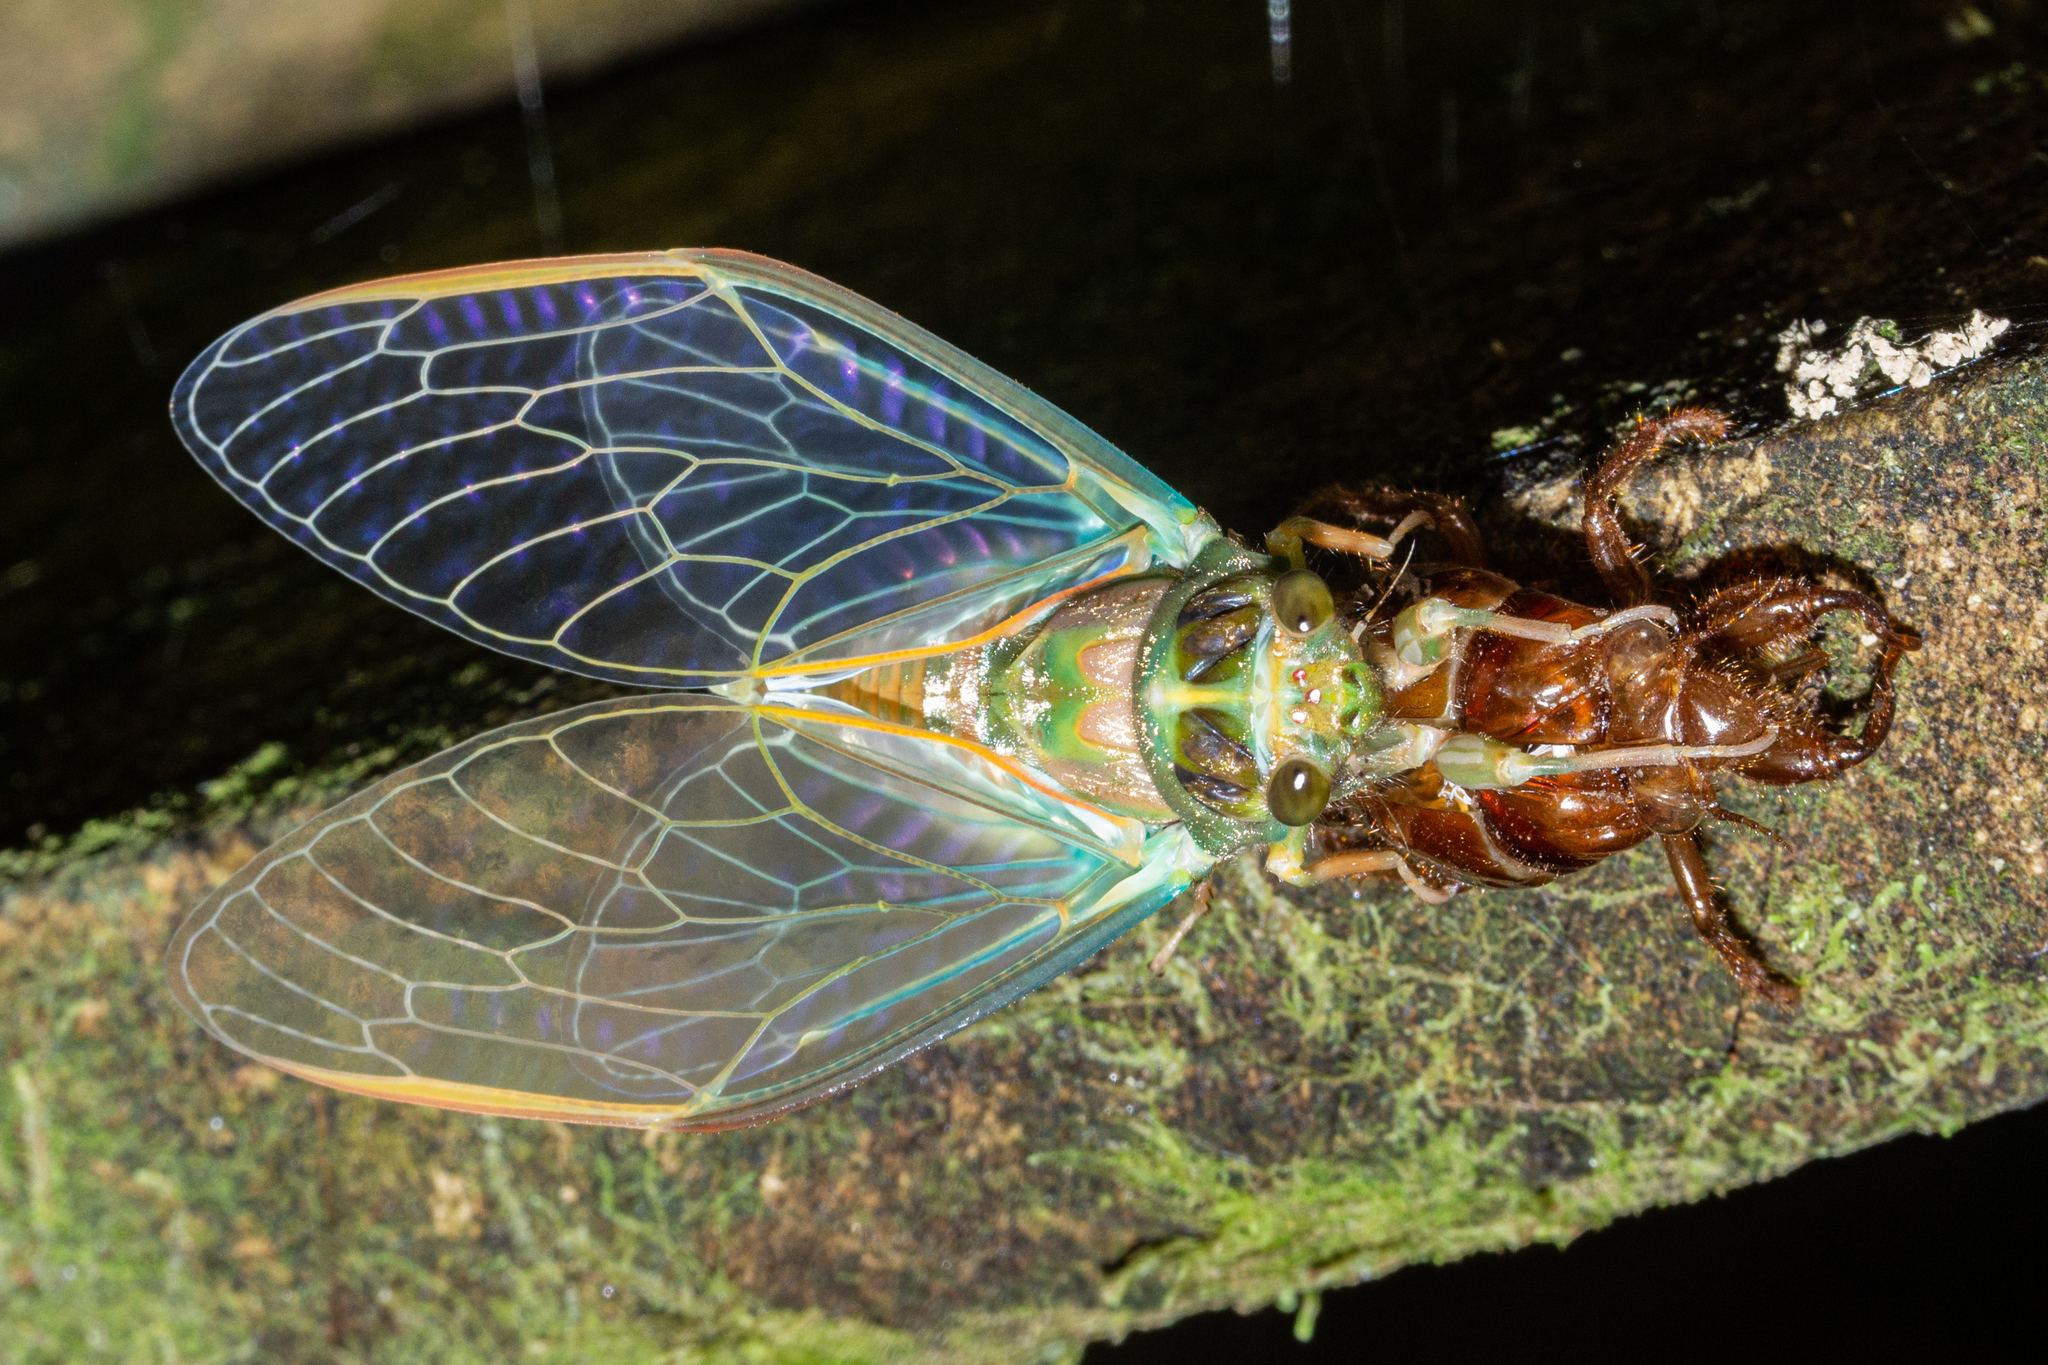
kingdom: Animalia
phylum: Arthropoda
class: Insecta
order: Hemiptera
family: Cicadidae
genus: Amphipsalta
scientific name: Amphipsalta zelandica
